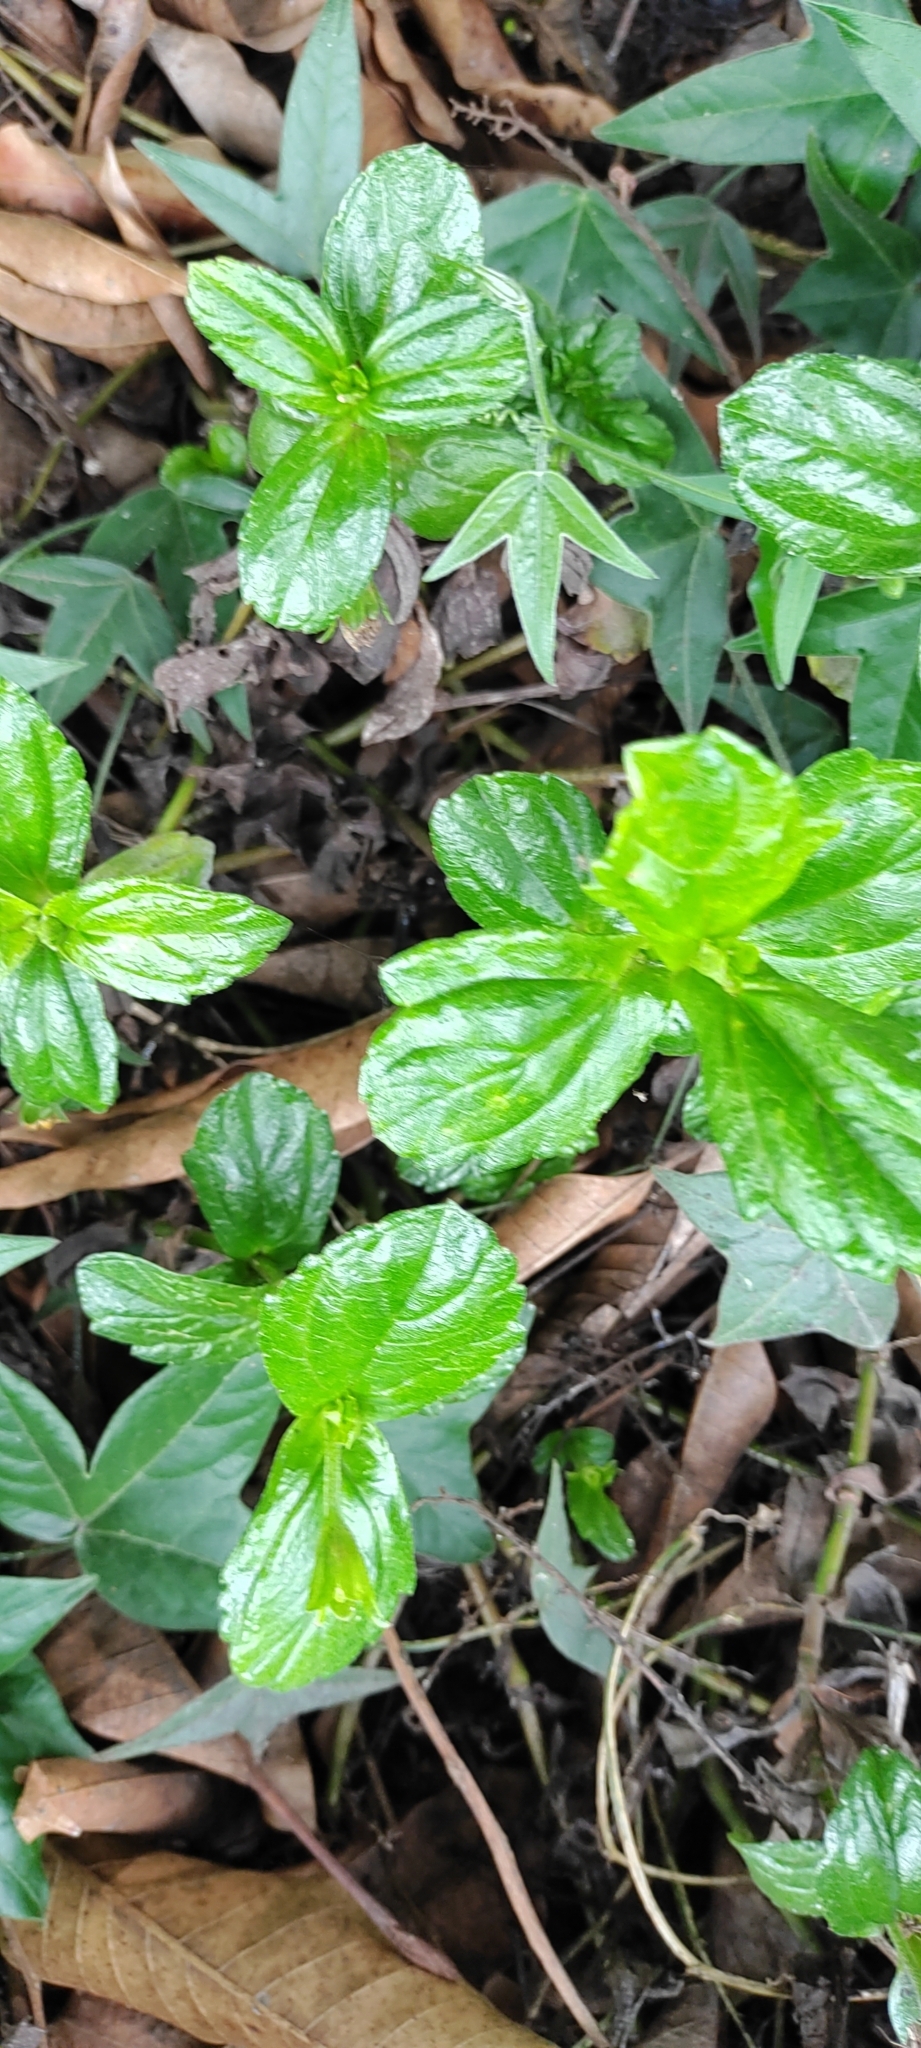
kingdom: Plantae
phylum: Tracheophyta
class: Magnoliopsida
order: Asterales
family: Asteraceae
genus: Sphagneticola
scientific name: Sphagneticola trilobata
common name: Bay biscayne creeping-oxeye
